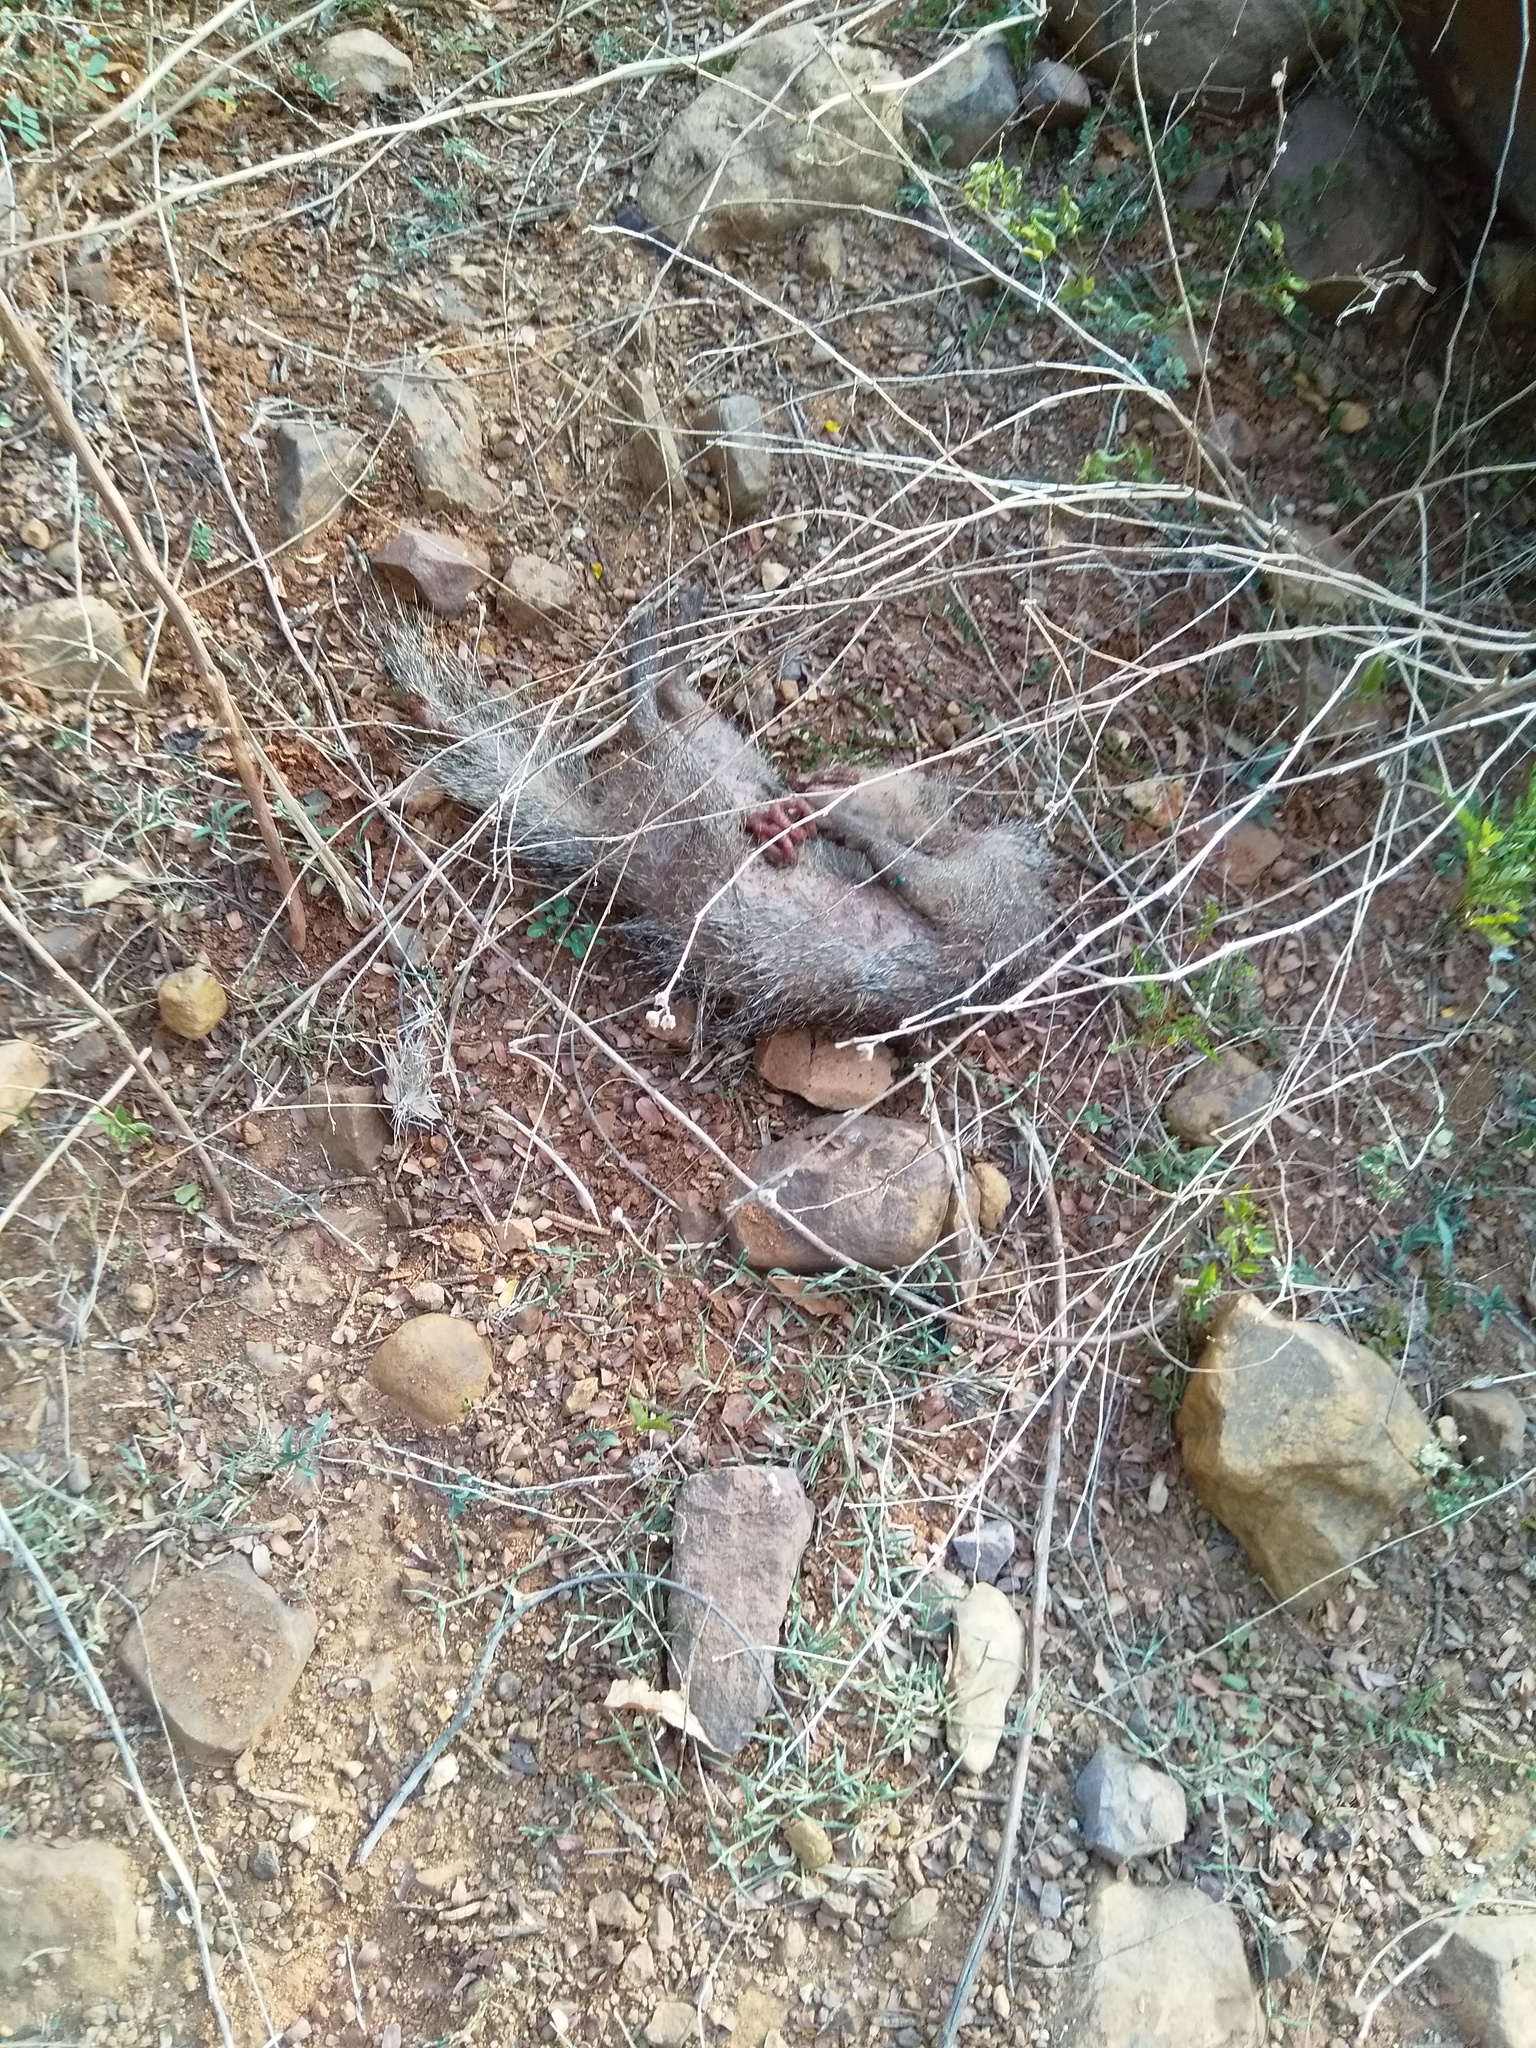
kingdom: Animalia
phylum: Chordata
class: Mammalia
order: Carnivora
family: Herpestidae
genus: Herpestes
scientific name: Herpestes edwardsi
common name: Indian gray mongoose
